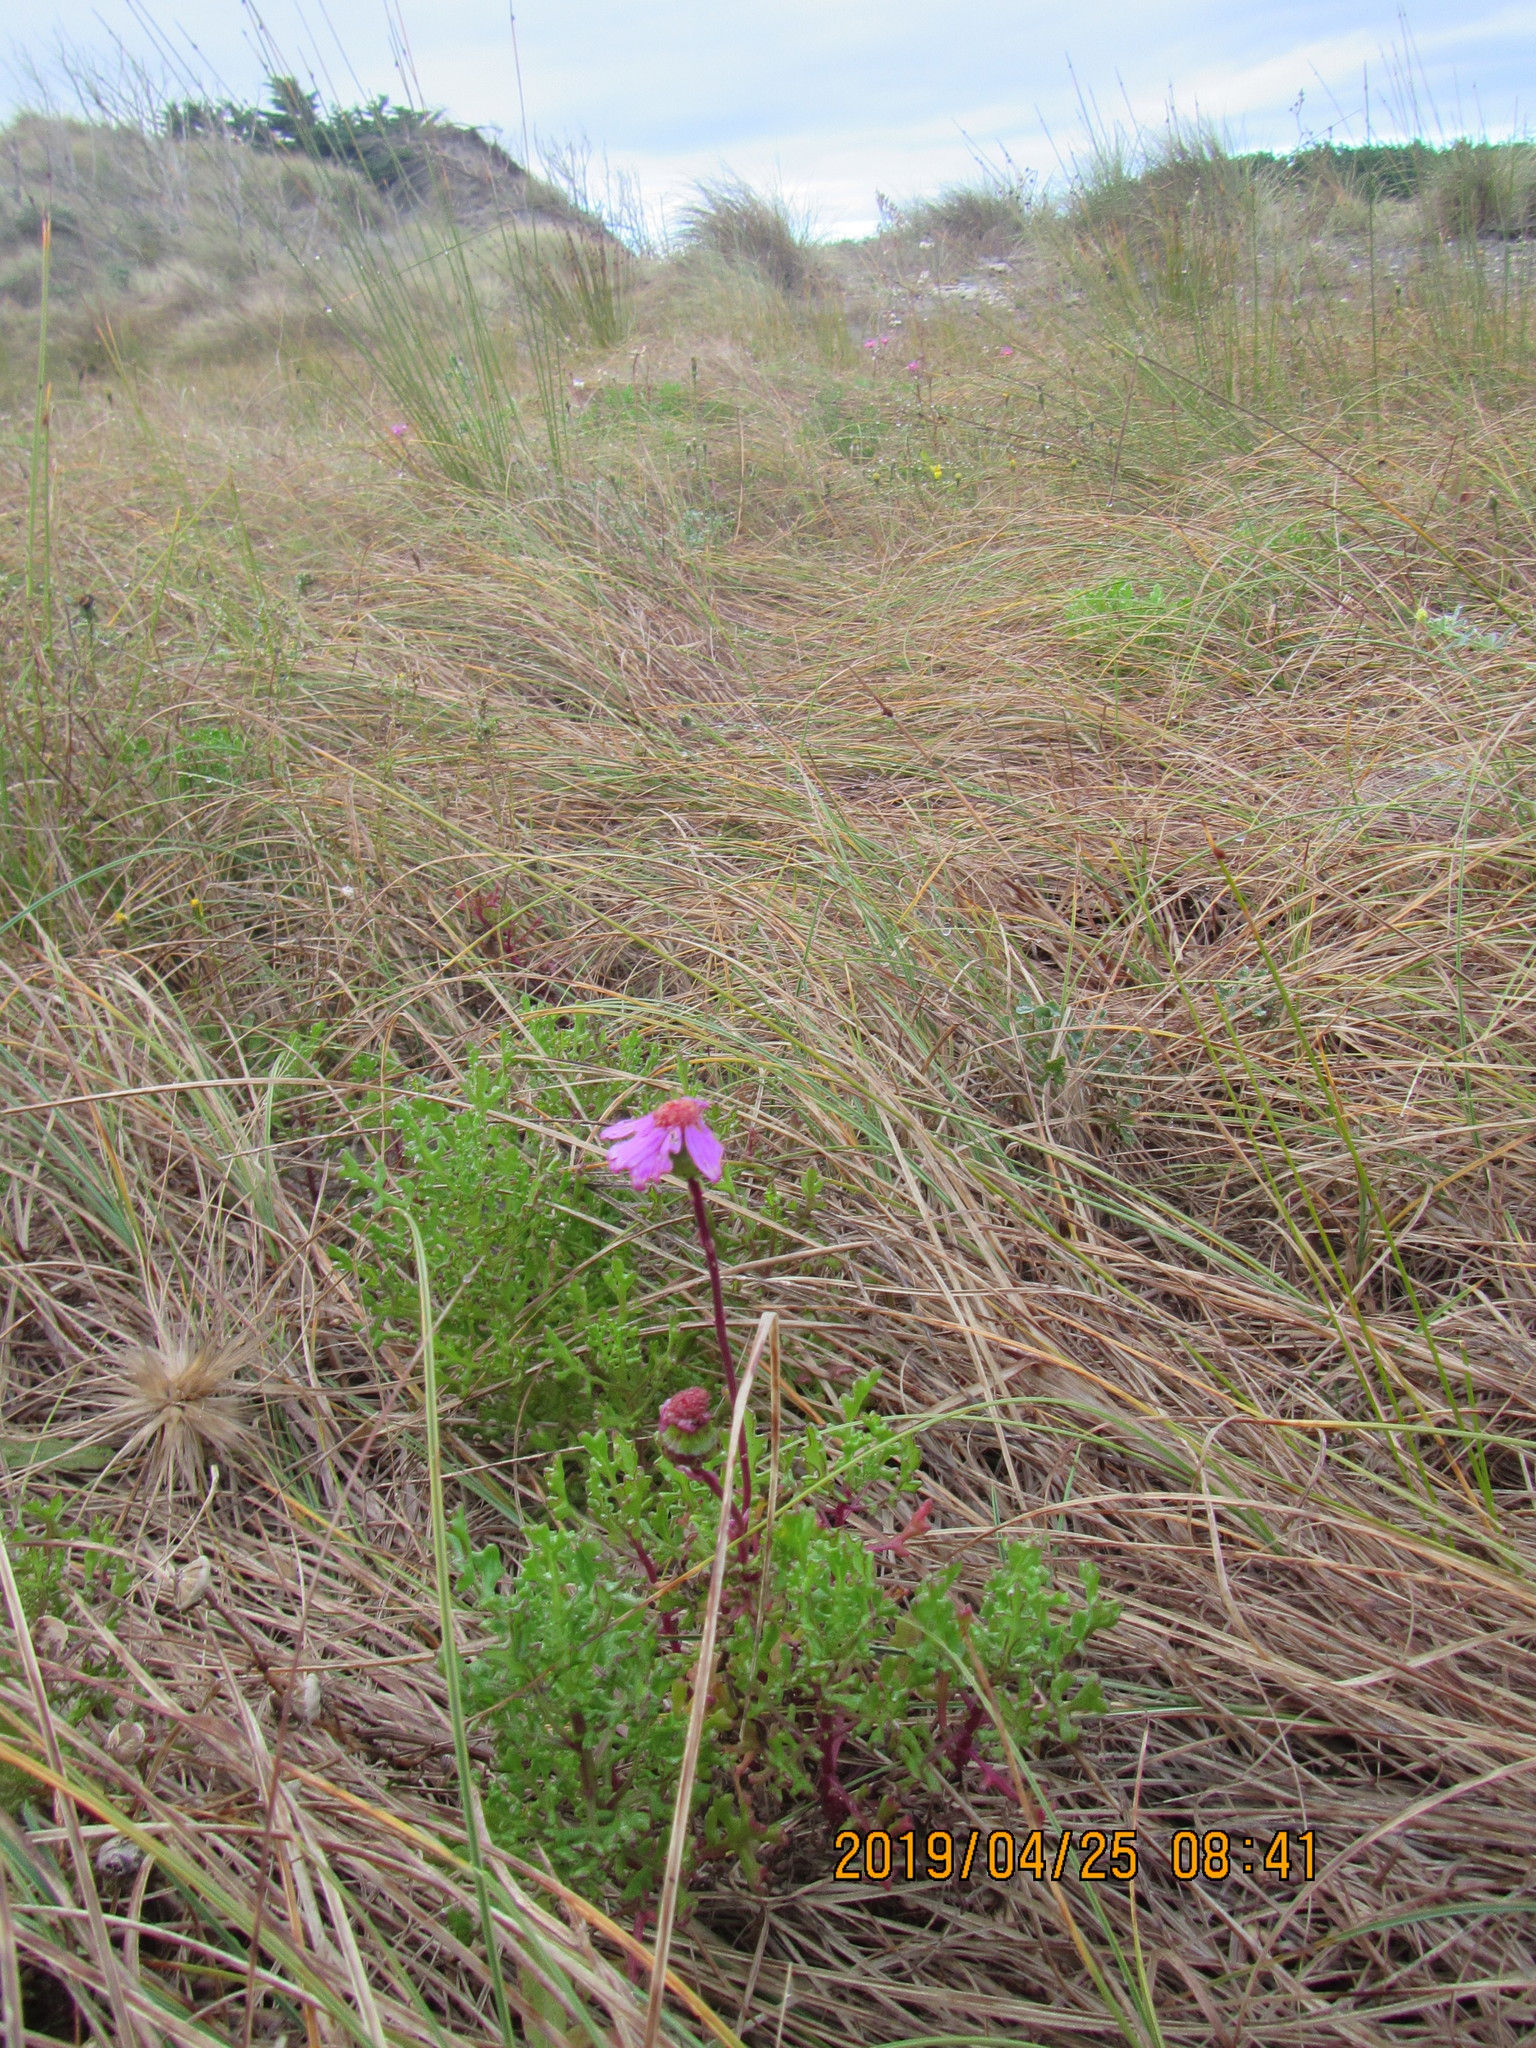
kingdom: Plantae
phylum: Tracheophyta
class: Magnoliopsida
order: Asterales
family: Asteraceae
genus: Senecio
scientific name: Senecio elegans
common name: Purple groundsel
